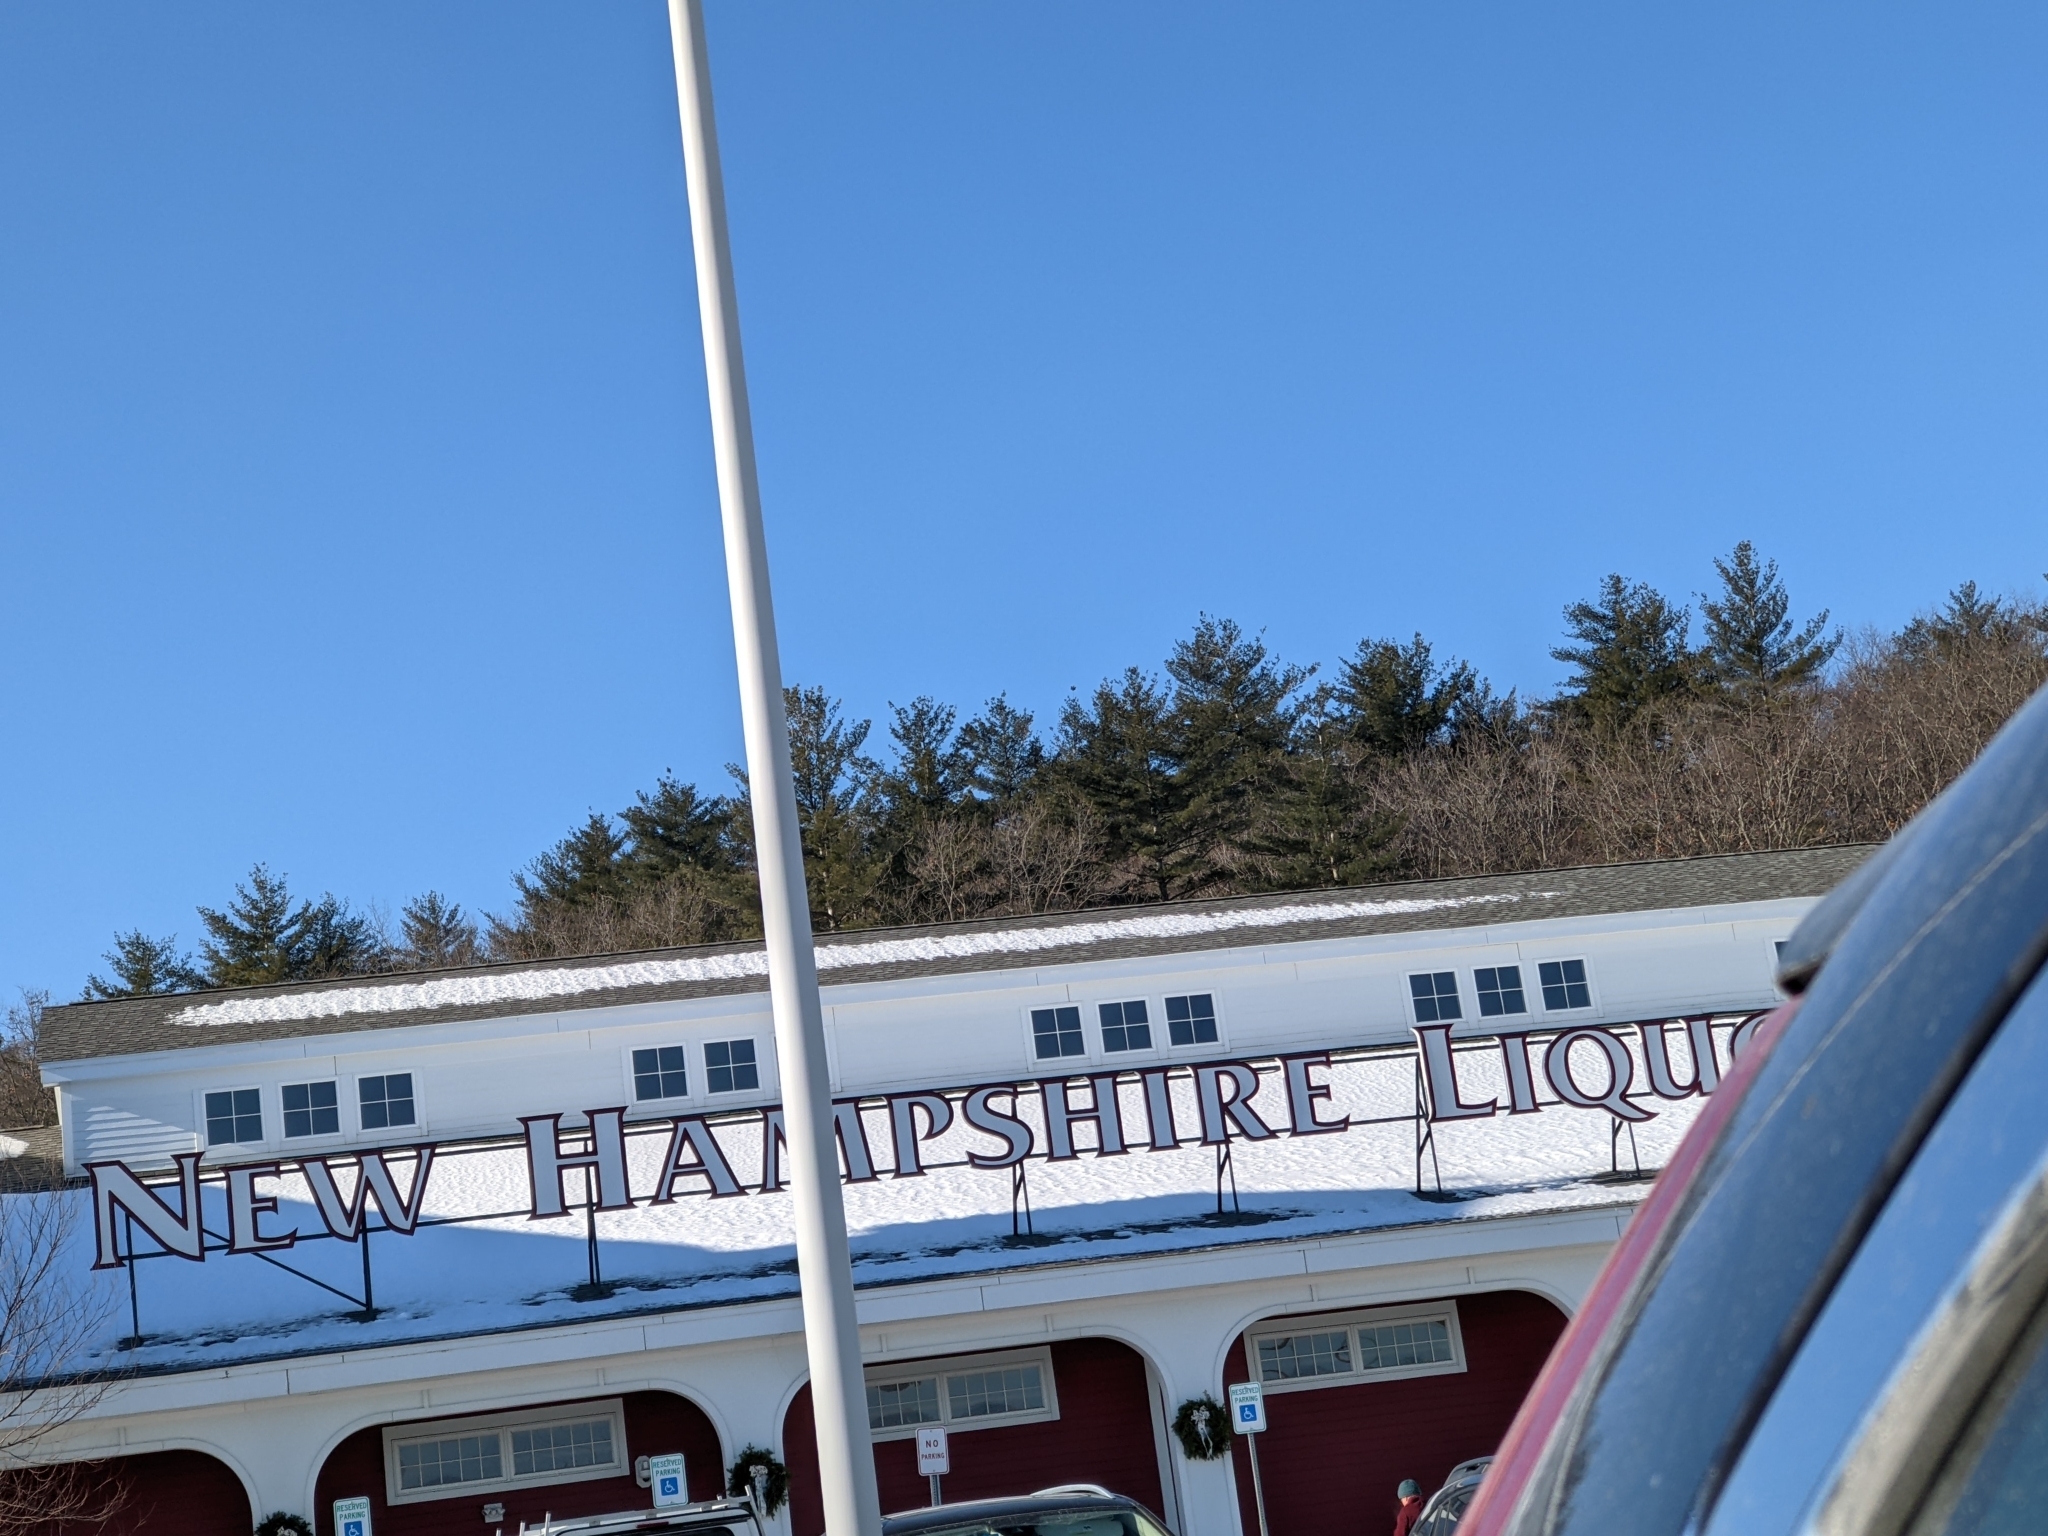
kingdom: Plantae
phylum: Tracheophyta
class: Pinopsida
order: Pinales
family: Pinaceae
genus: Pinus
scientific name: Pinus strobus
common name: Weymouth pine
